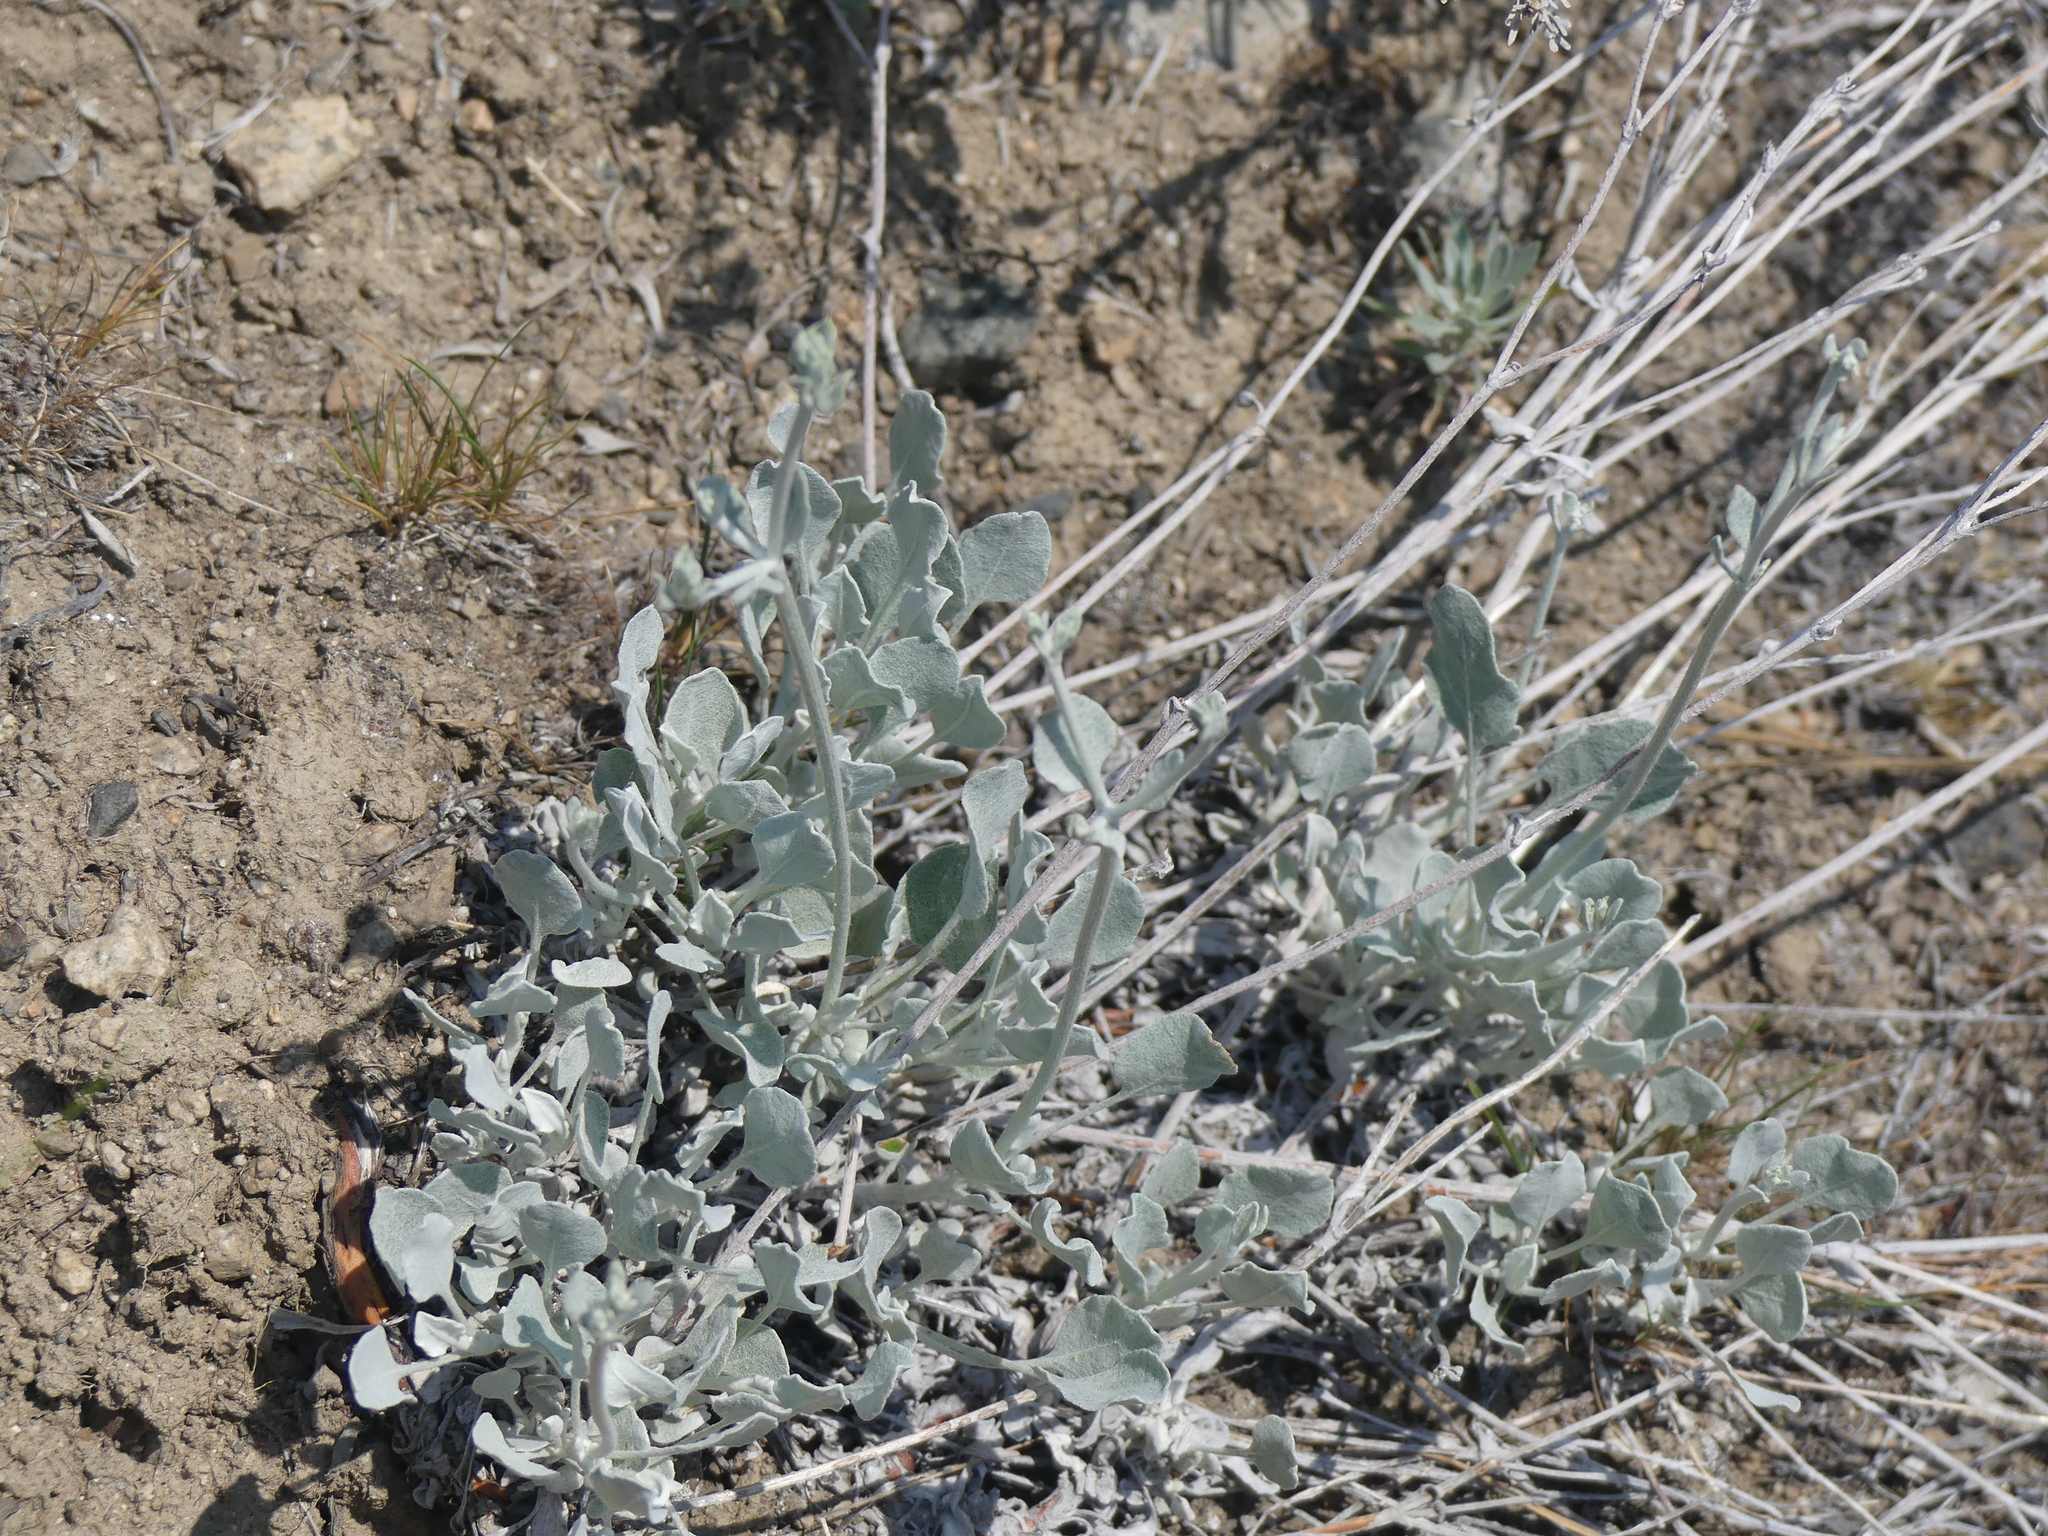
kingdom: Plantae
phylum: Tracheophyta
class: Magnoliopsida
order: Caryophyllales
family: Polygonaceae
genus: Eriogonum
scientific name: Eriogonum niveum
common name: Snow wild buckwheat
